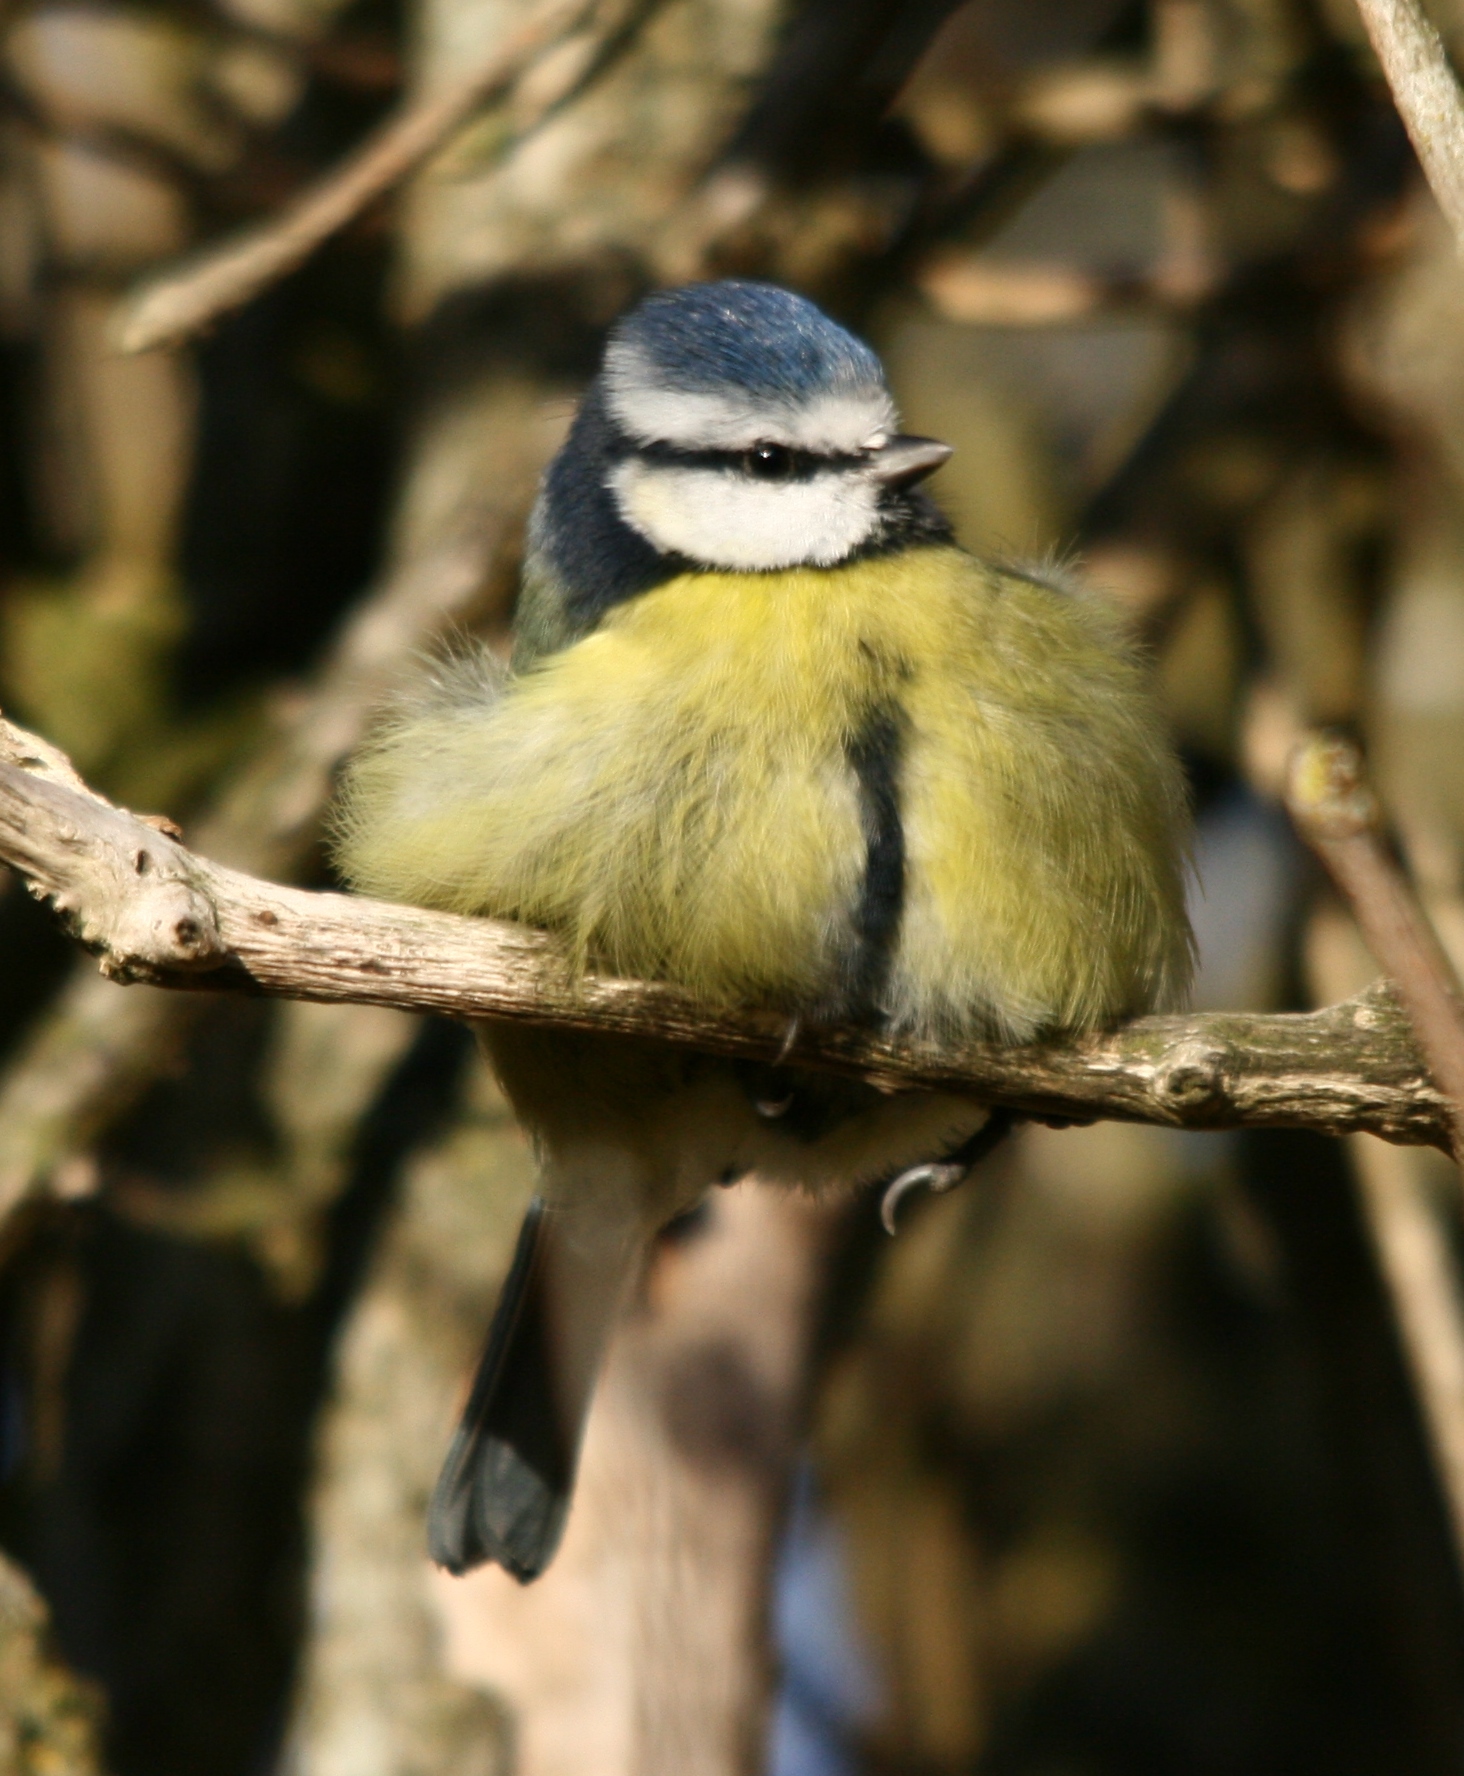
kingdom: Animalia
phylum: Chordata
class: Aves
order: Passeriformes
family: Paridae
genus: Cyanistes
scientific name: Cyanistes caeruleus
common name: Eurasian blue tit
